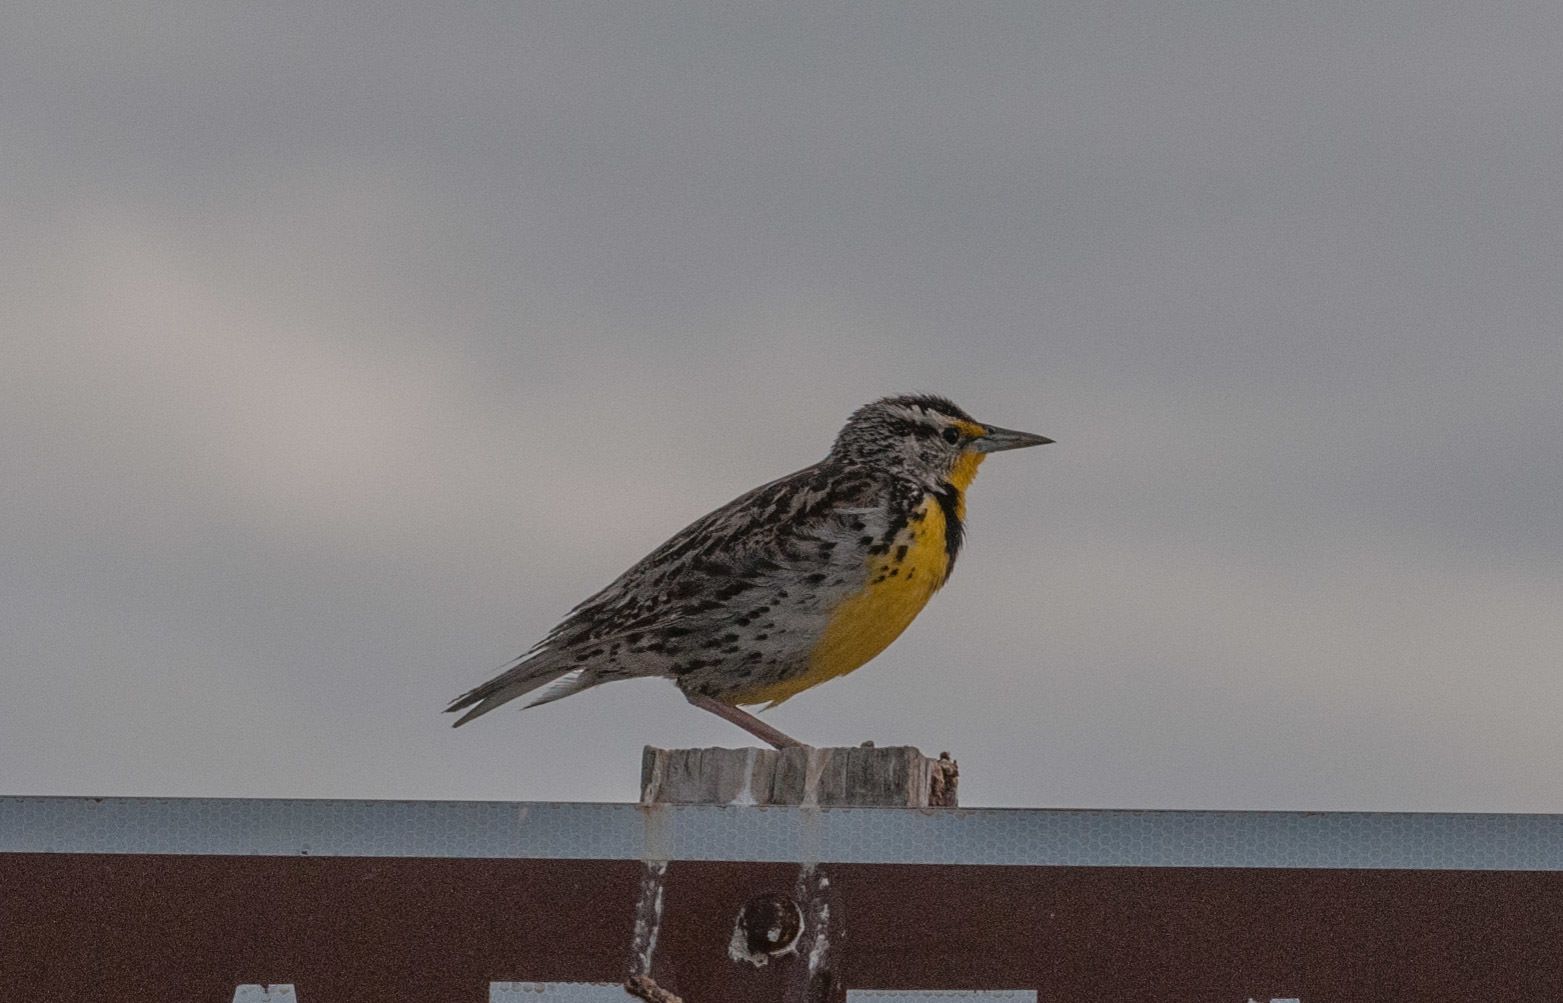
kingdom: Animalia
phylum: Chordata
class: Aves
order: Passeriformes
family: Icteridae
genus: Sturnella
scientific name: Sturnella neglecta
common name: Western meadowlark
